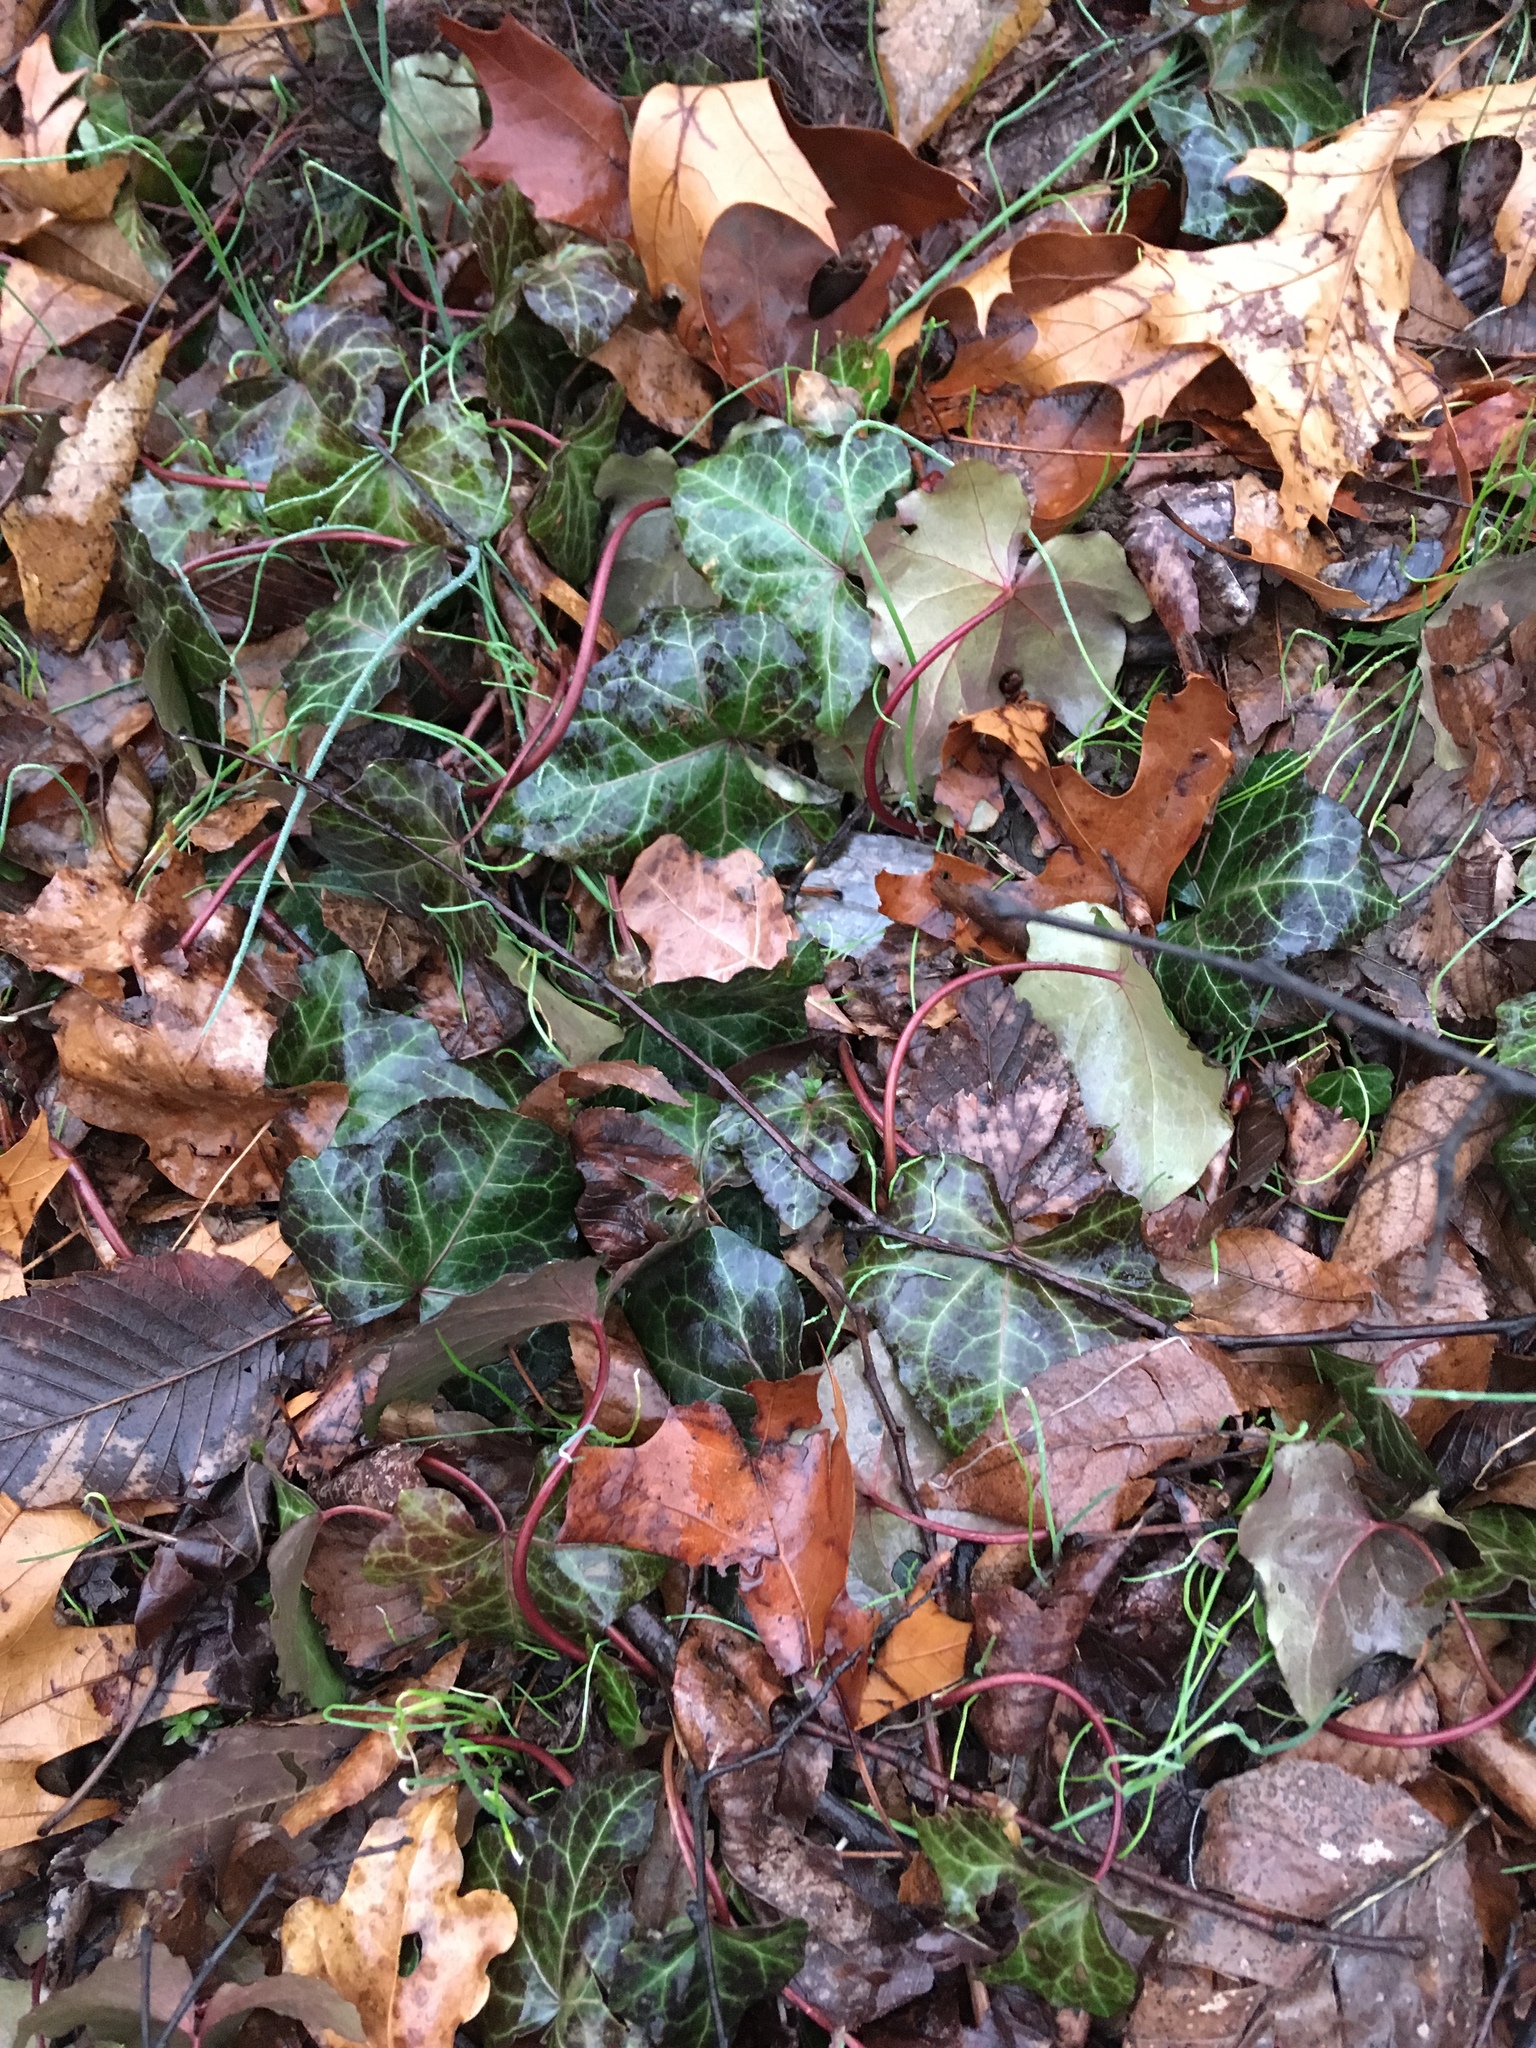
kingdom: Plantae
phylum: Tracheophyta
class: Magnoliopsida
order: Apiales
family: Araliaceae
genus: Hedera
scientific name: Hedera helix
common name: Ivy
